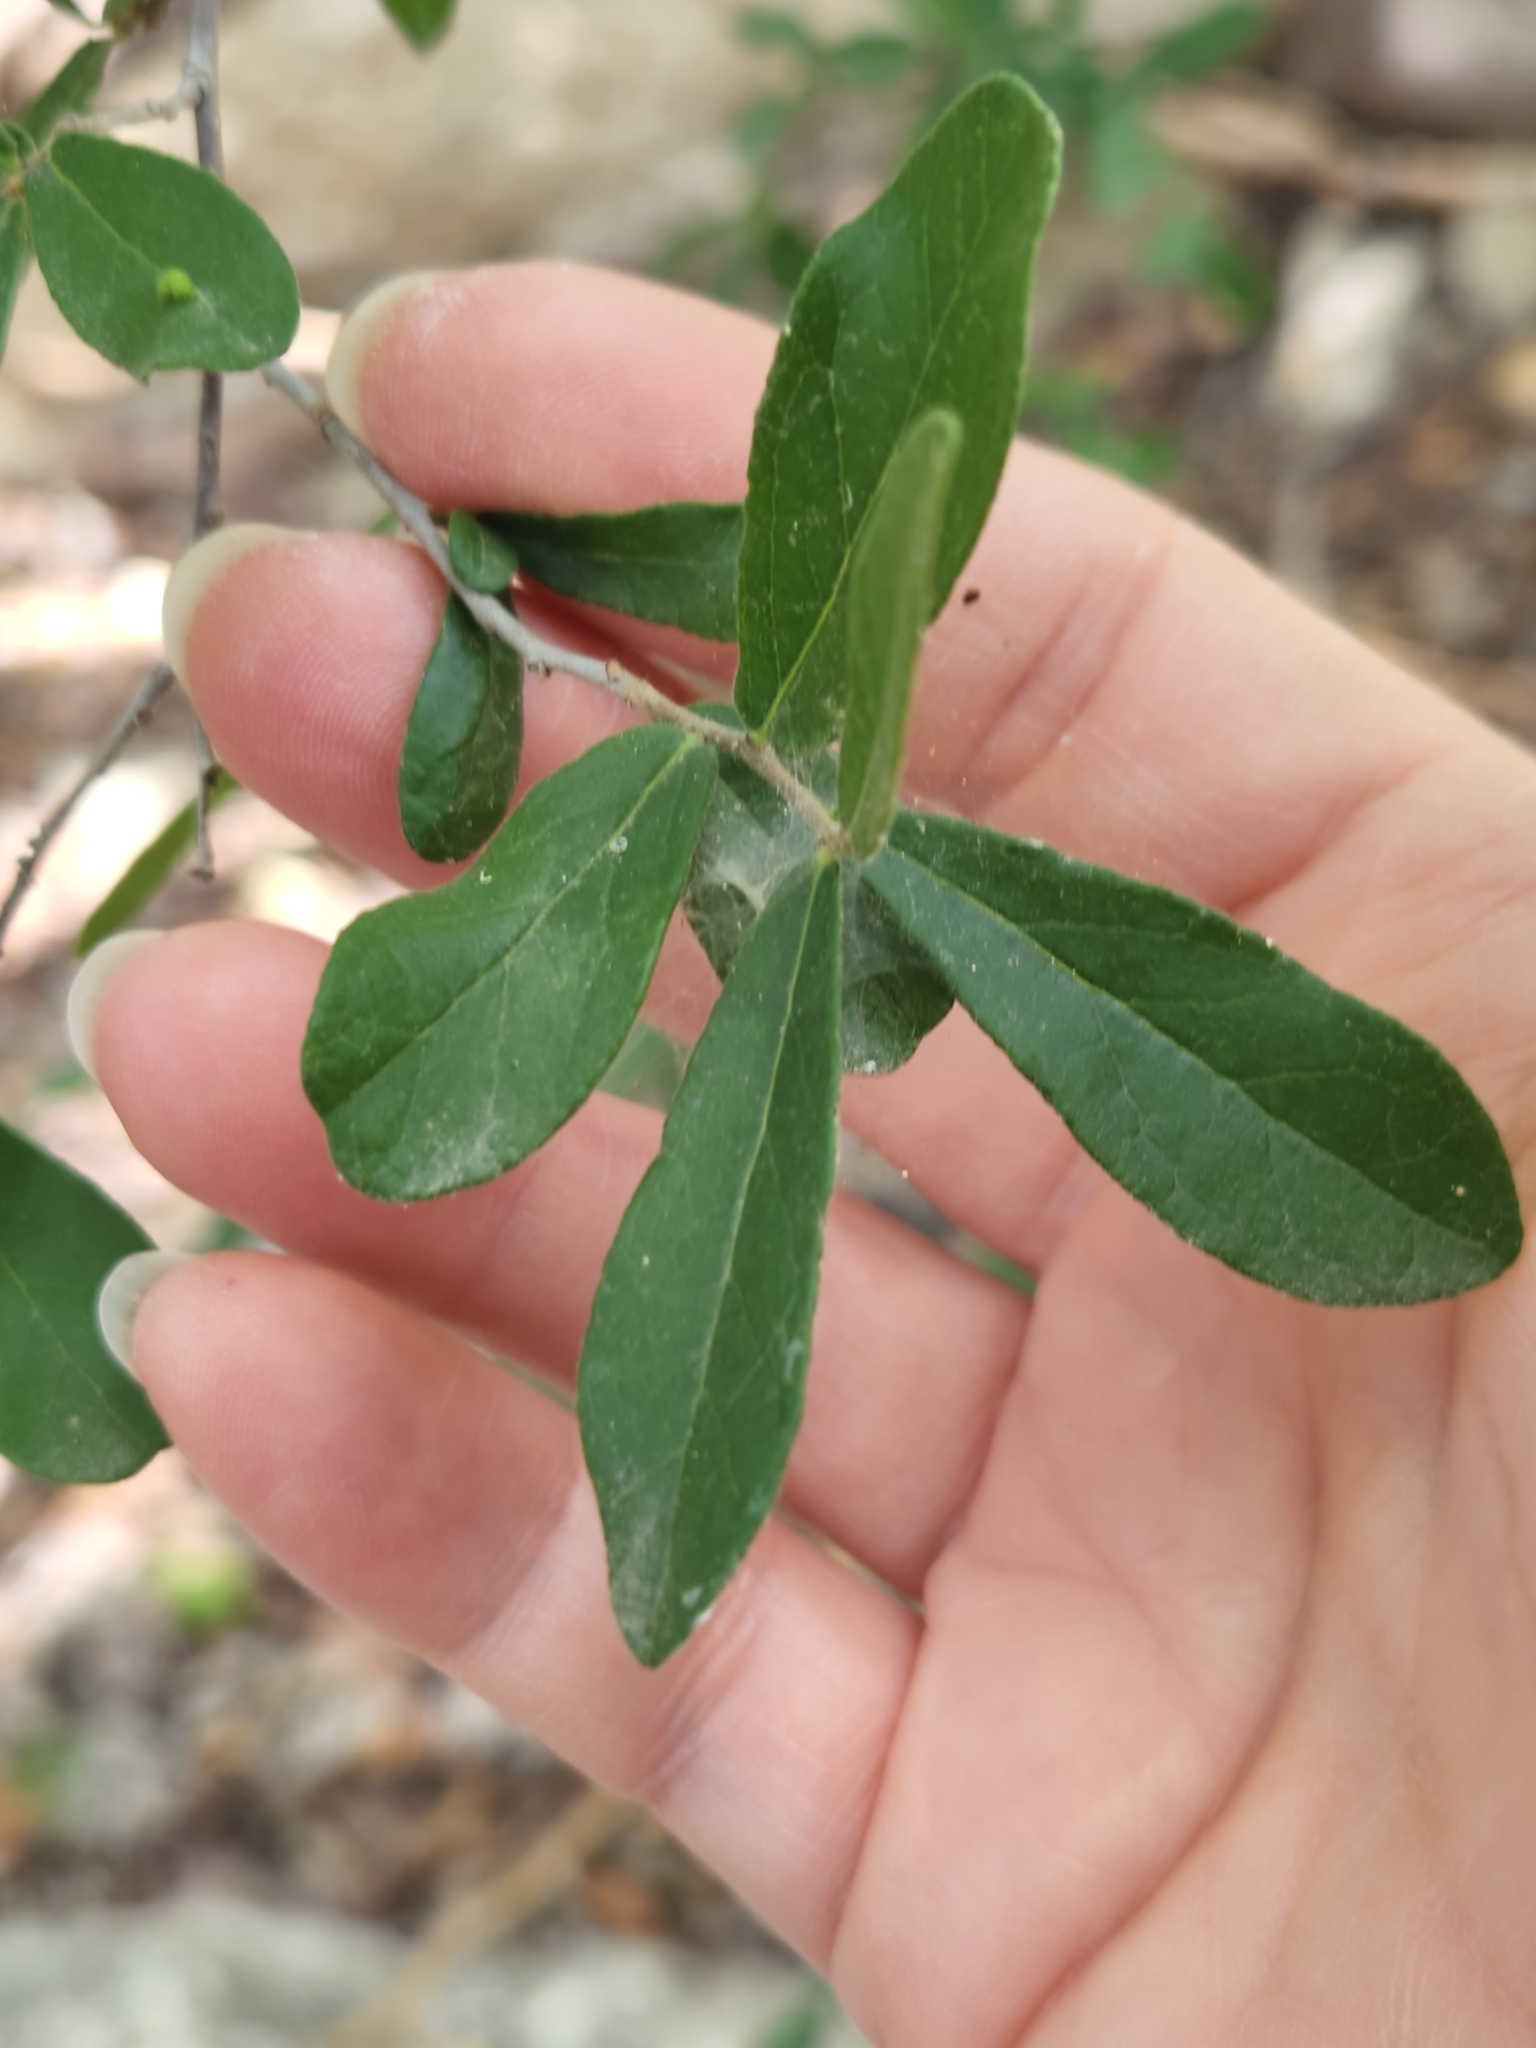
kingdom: Plantae
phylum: Tracheophyta
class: Magnoliopsida
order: Ericales
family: Ebenaceae
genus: Diospyros
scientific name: Diospyros texana
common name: Texas persimmon
